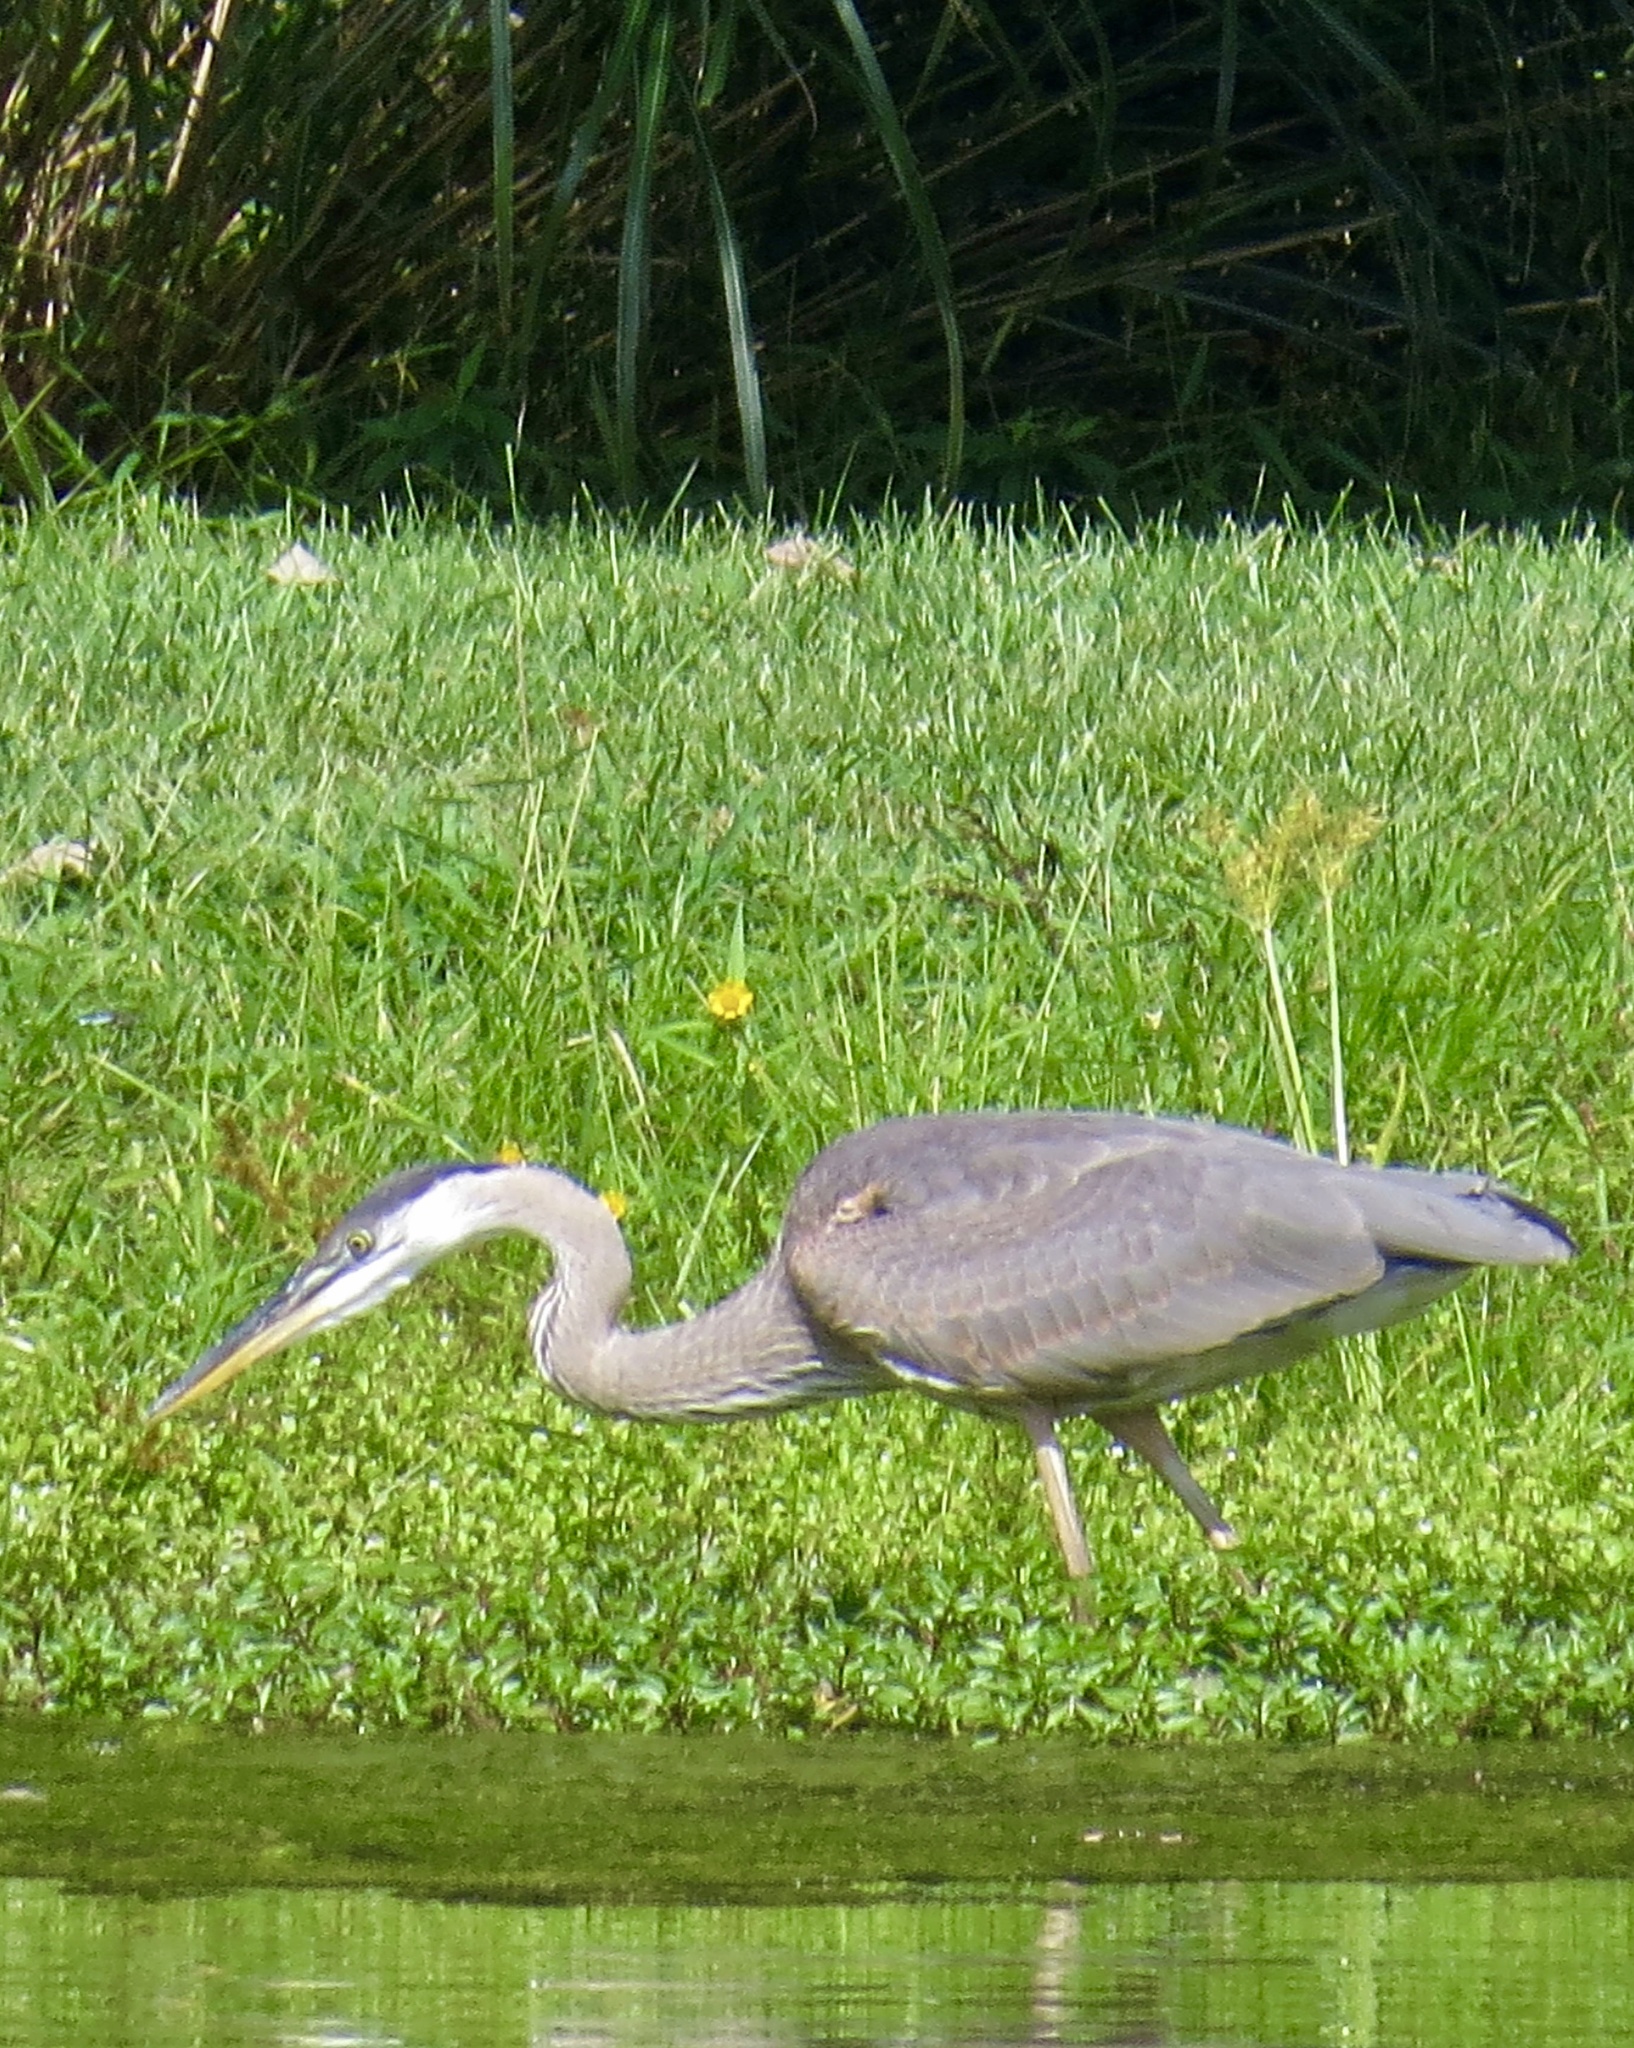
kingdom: Animalia
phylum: Chordata
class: Aves
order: Pelecaniformes
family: Ardeidae
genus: Ardea
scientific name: Ardea herodias
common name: Great blue heron
